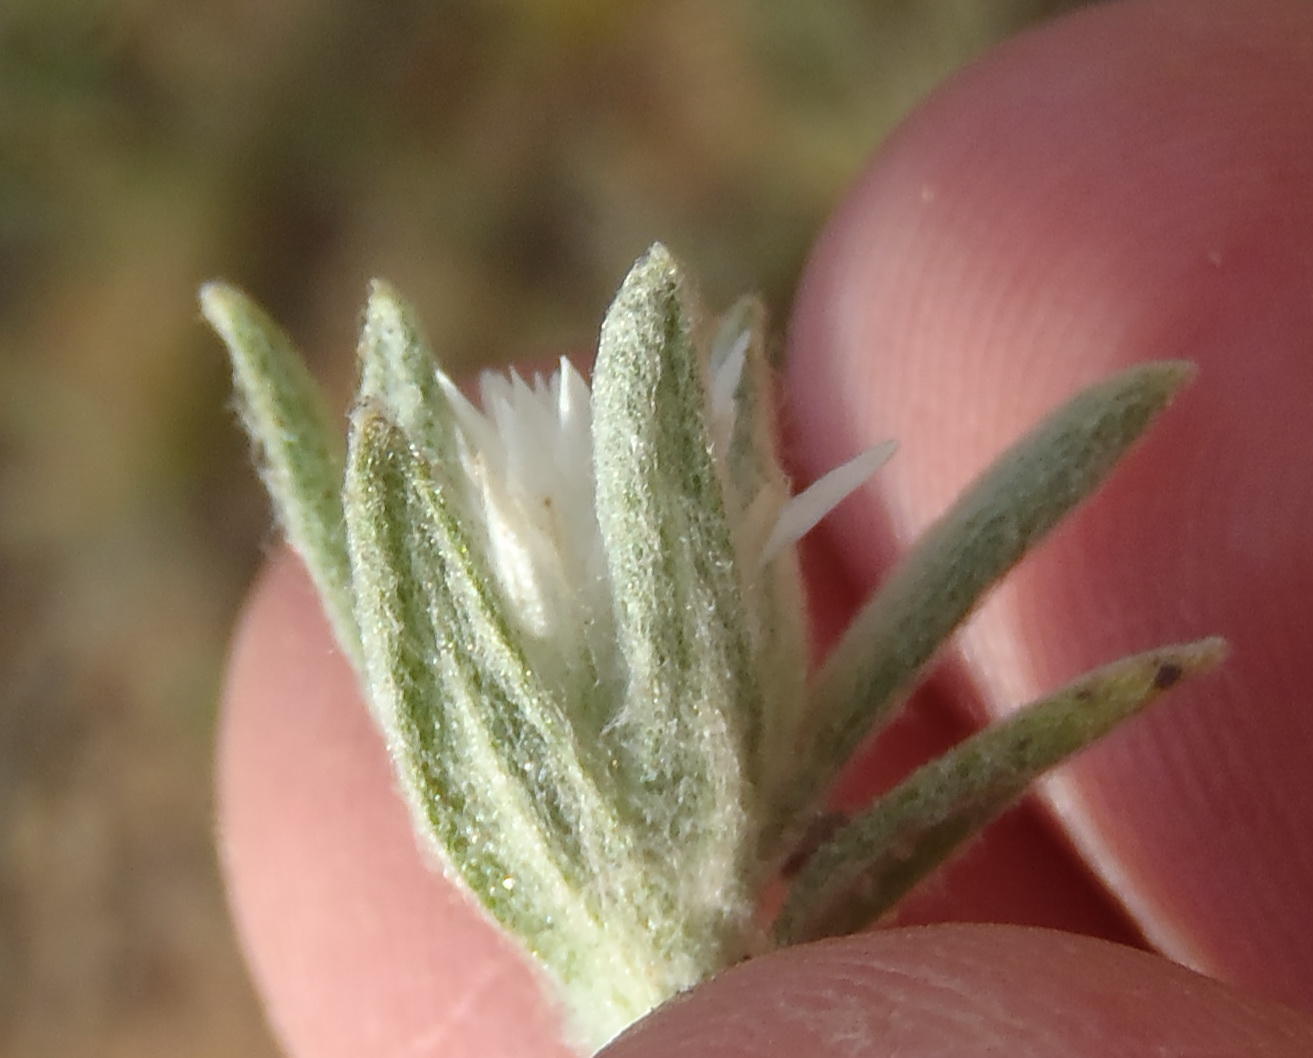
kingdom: Plantae
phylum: Tracheophyta
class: Magnoliopsida
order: Asterales
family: Asteraceae
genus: Helichrysum
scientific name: Helichrysum cerastioides
